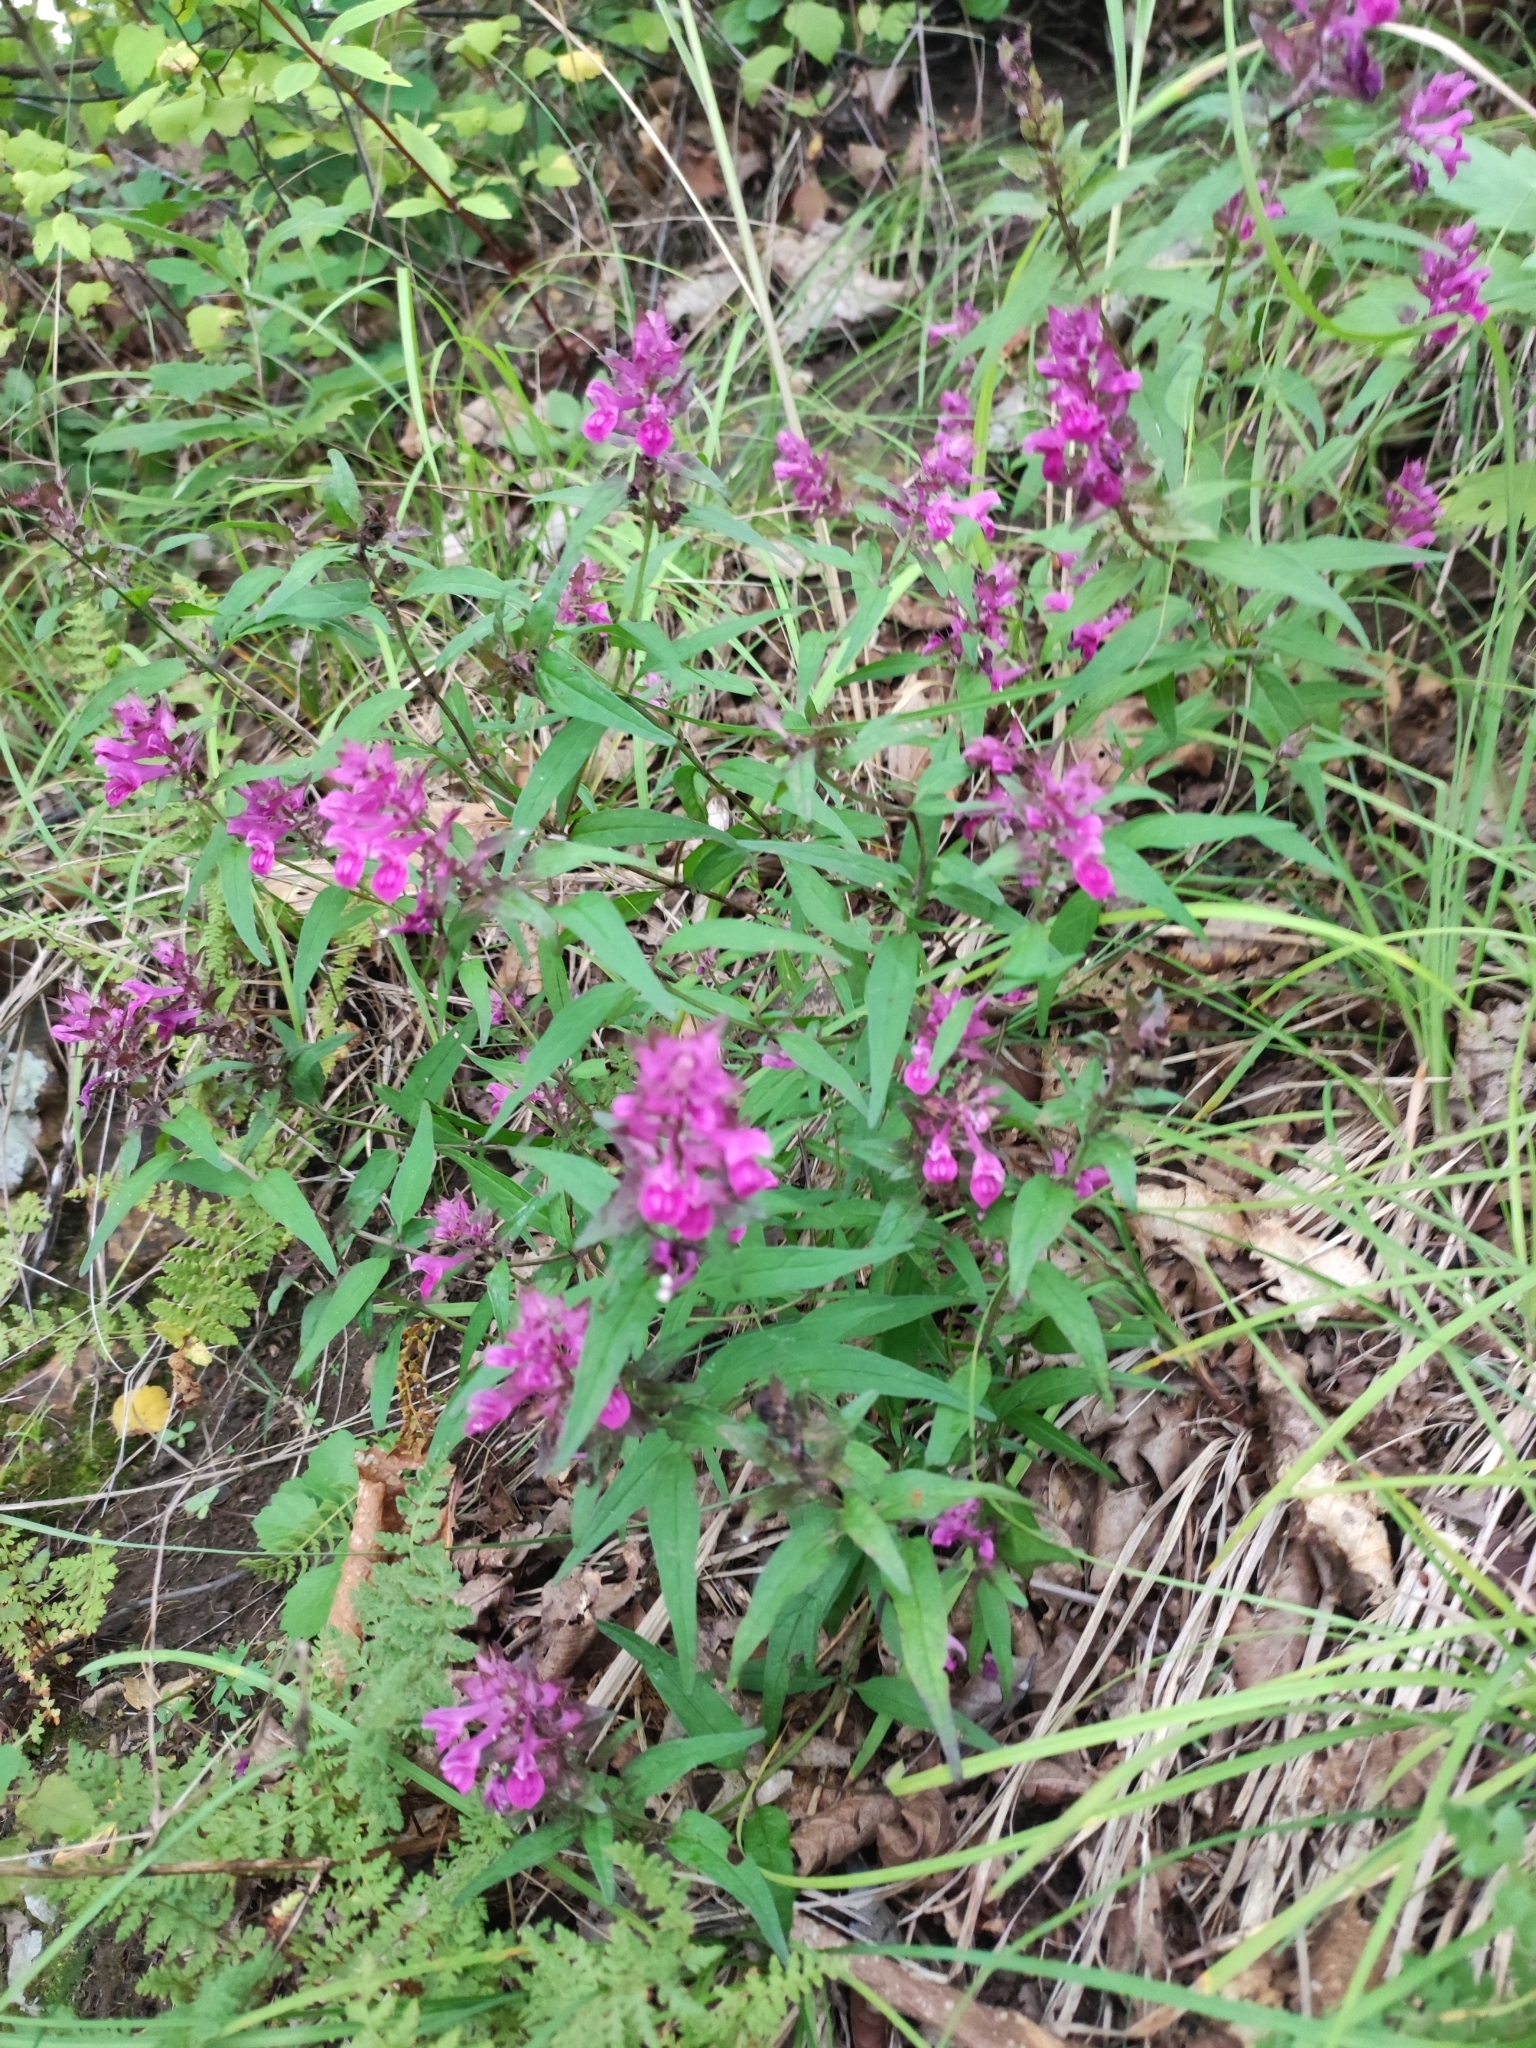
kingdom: Plantae
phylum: Tracheophyta
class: Magnoliopsida
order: Lamiales
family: Orobanchaceae
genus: Melampyrum
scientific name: Melampyrum setaceum
